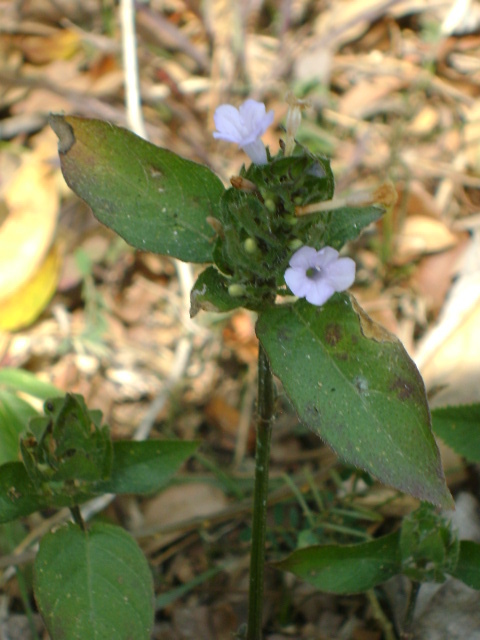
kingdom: Plantae
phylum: Tracheophyta
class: Magnoliopsida
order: Lamiales
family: Acanthaceae
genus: Ruellia
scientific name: Ruellia blechum
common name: Browne's blechum
